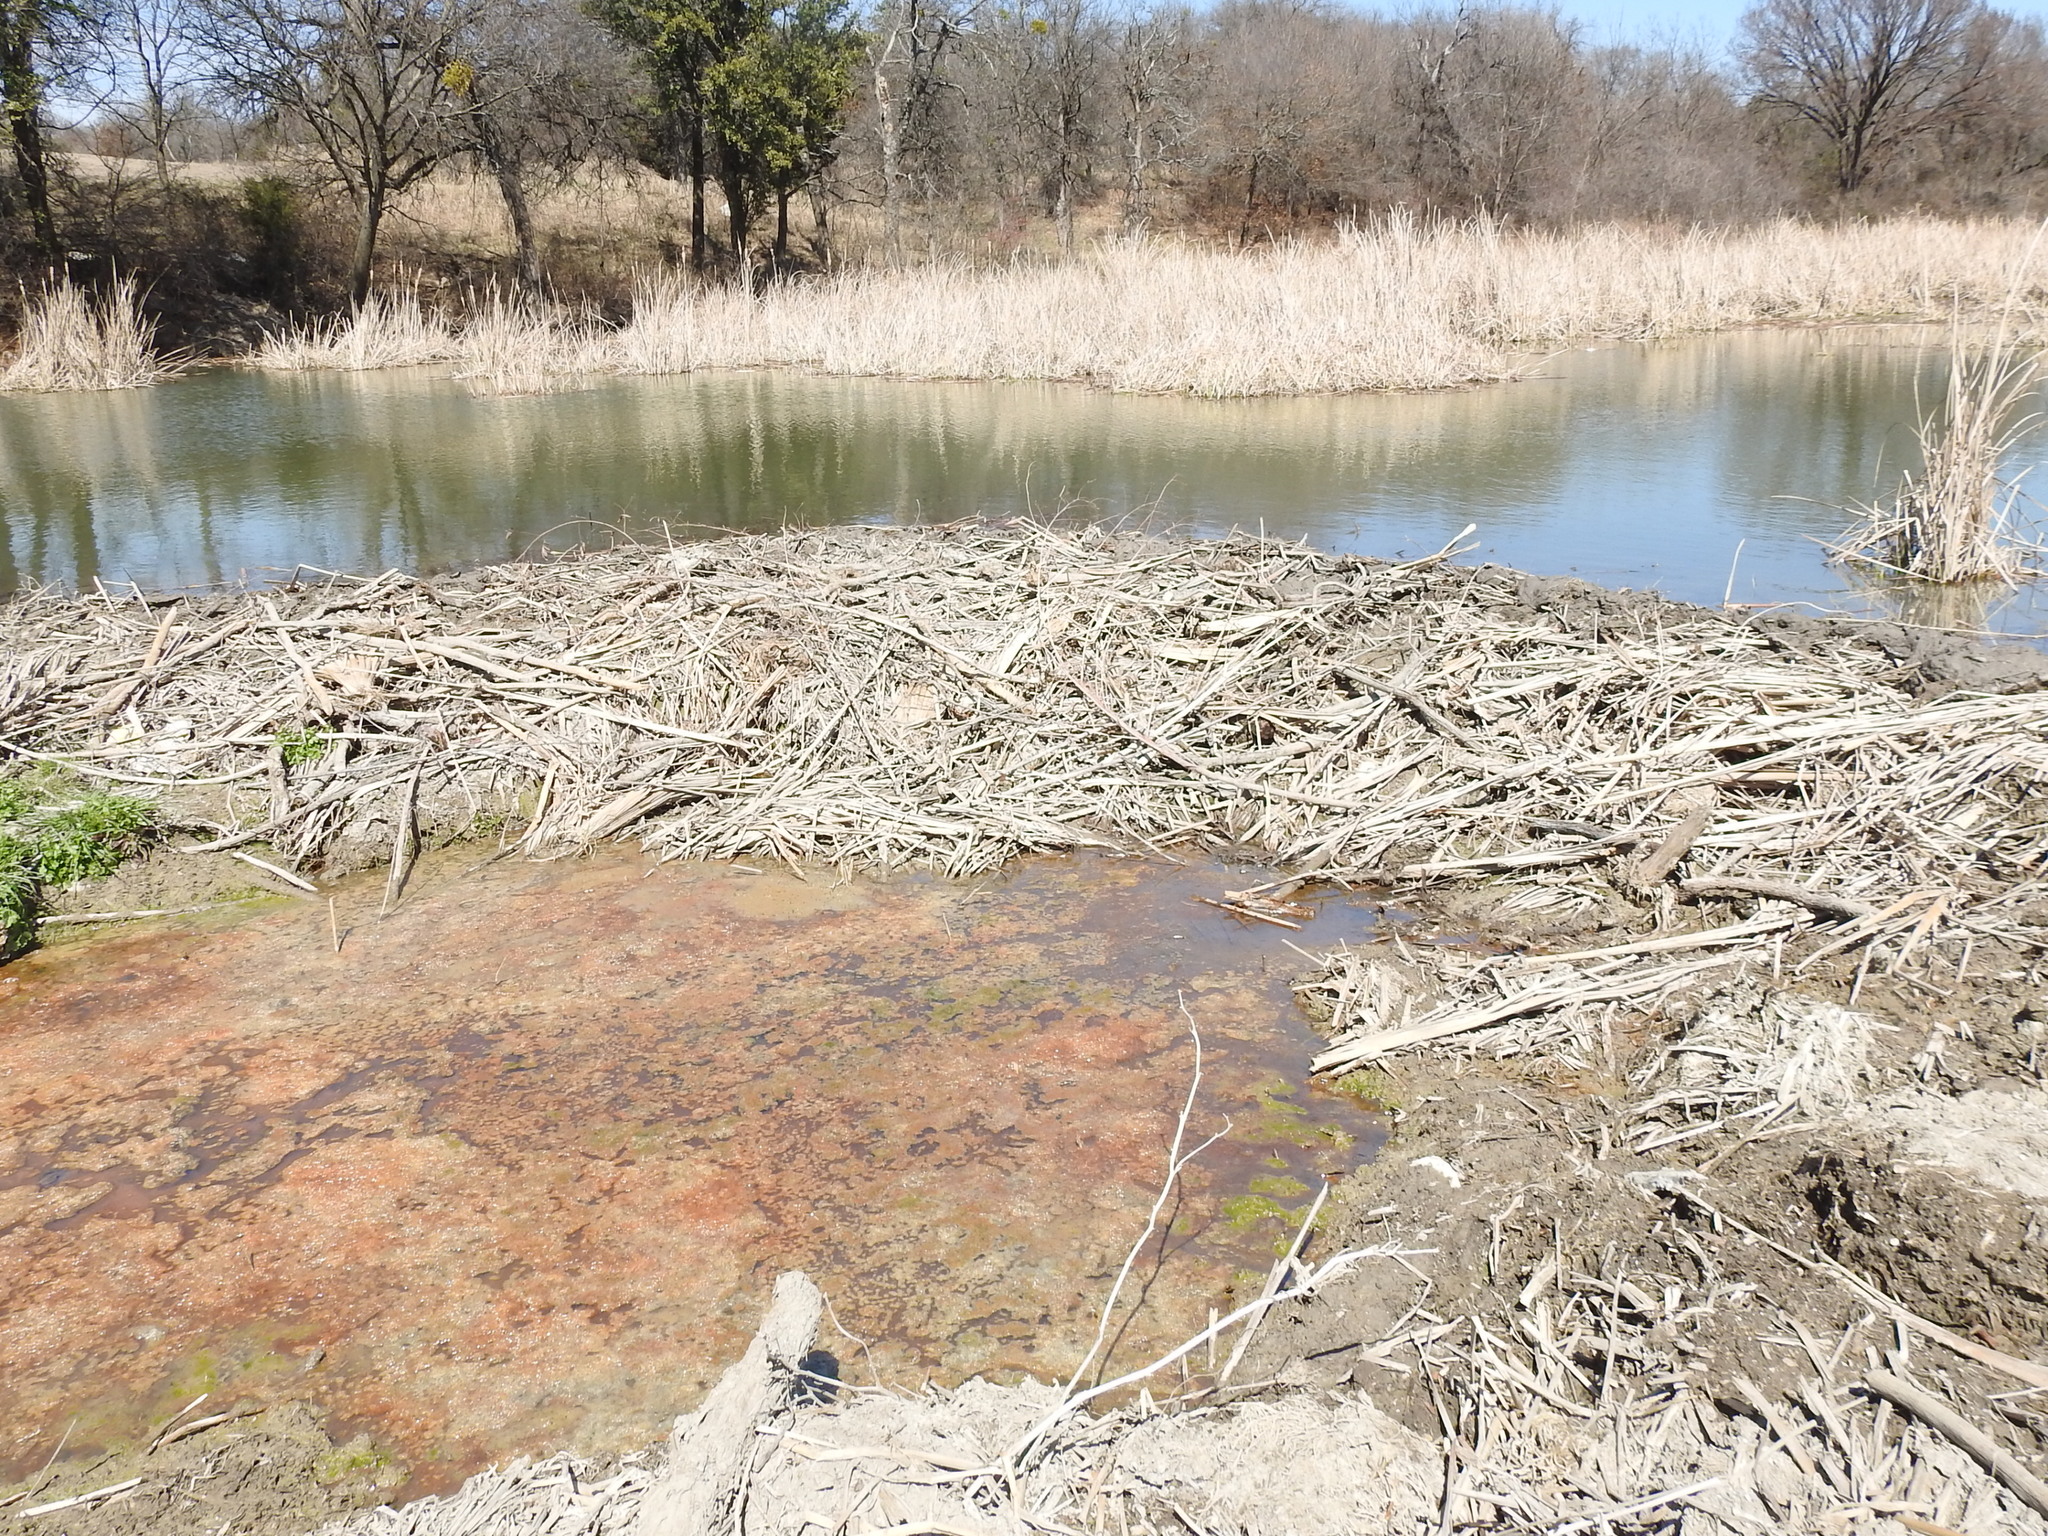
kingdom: Animalia
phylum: Chordata
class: Mammalia
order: Rodentia
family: Castoridae
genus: Castor
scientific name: Castor canadensis
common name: American beaver
